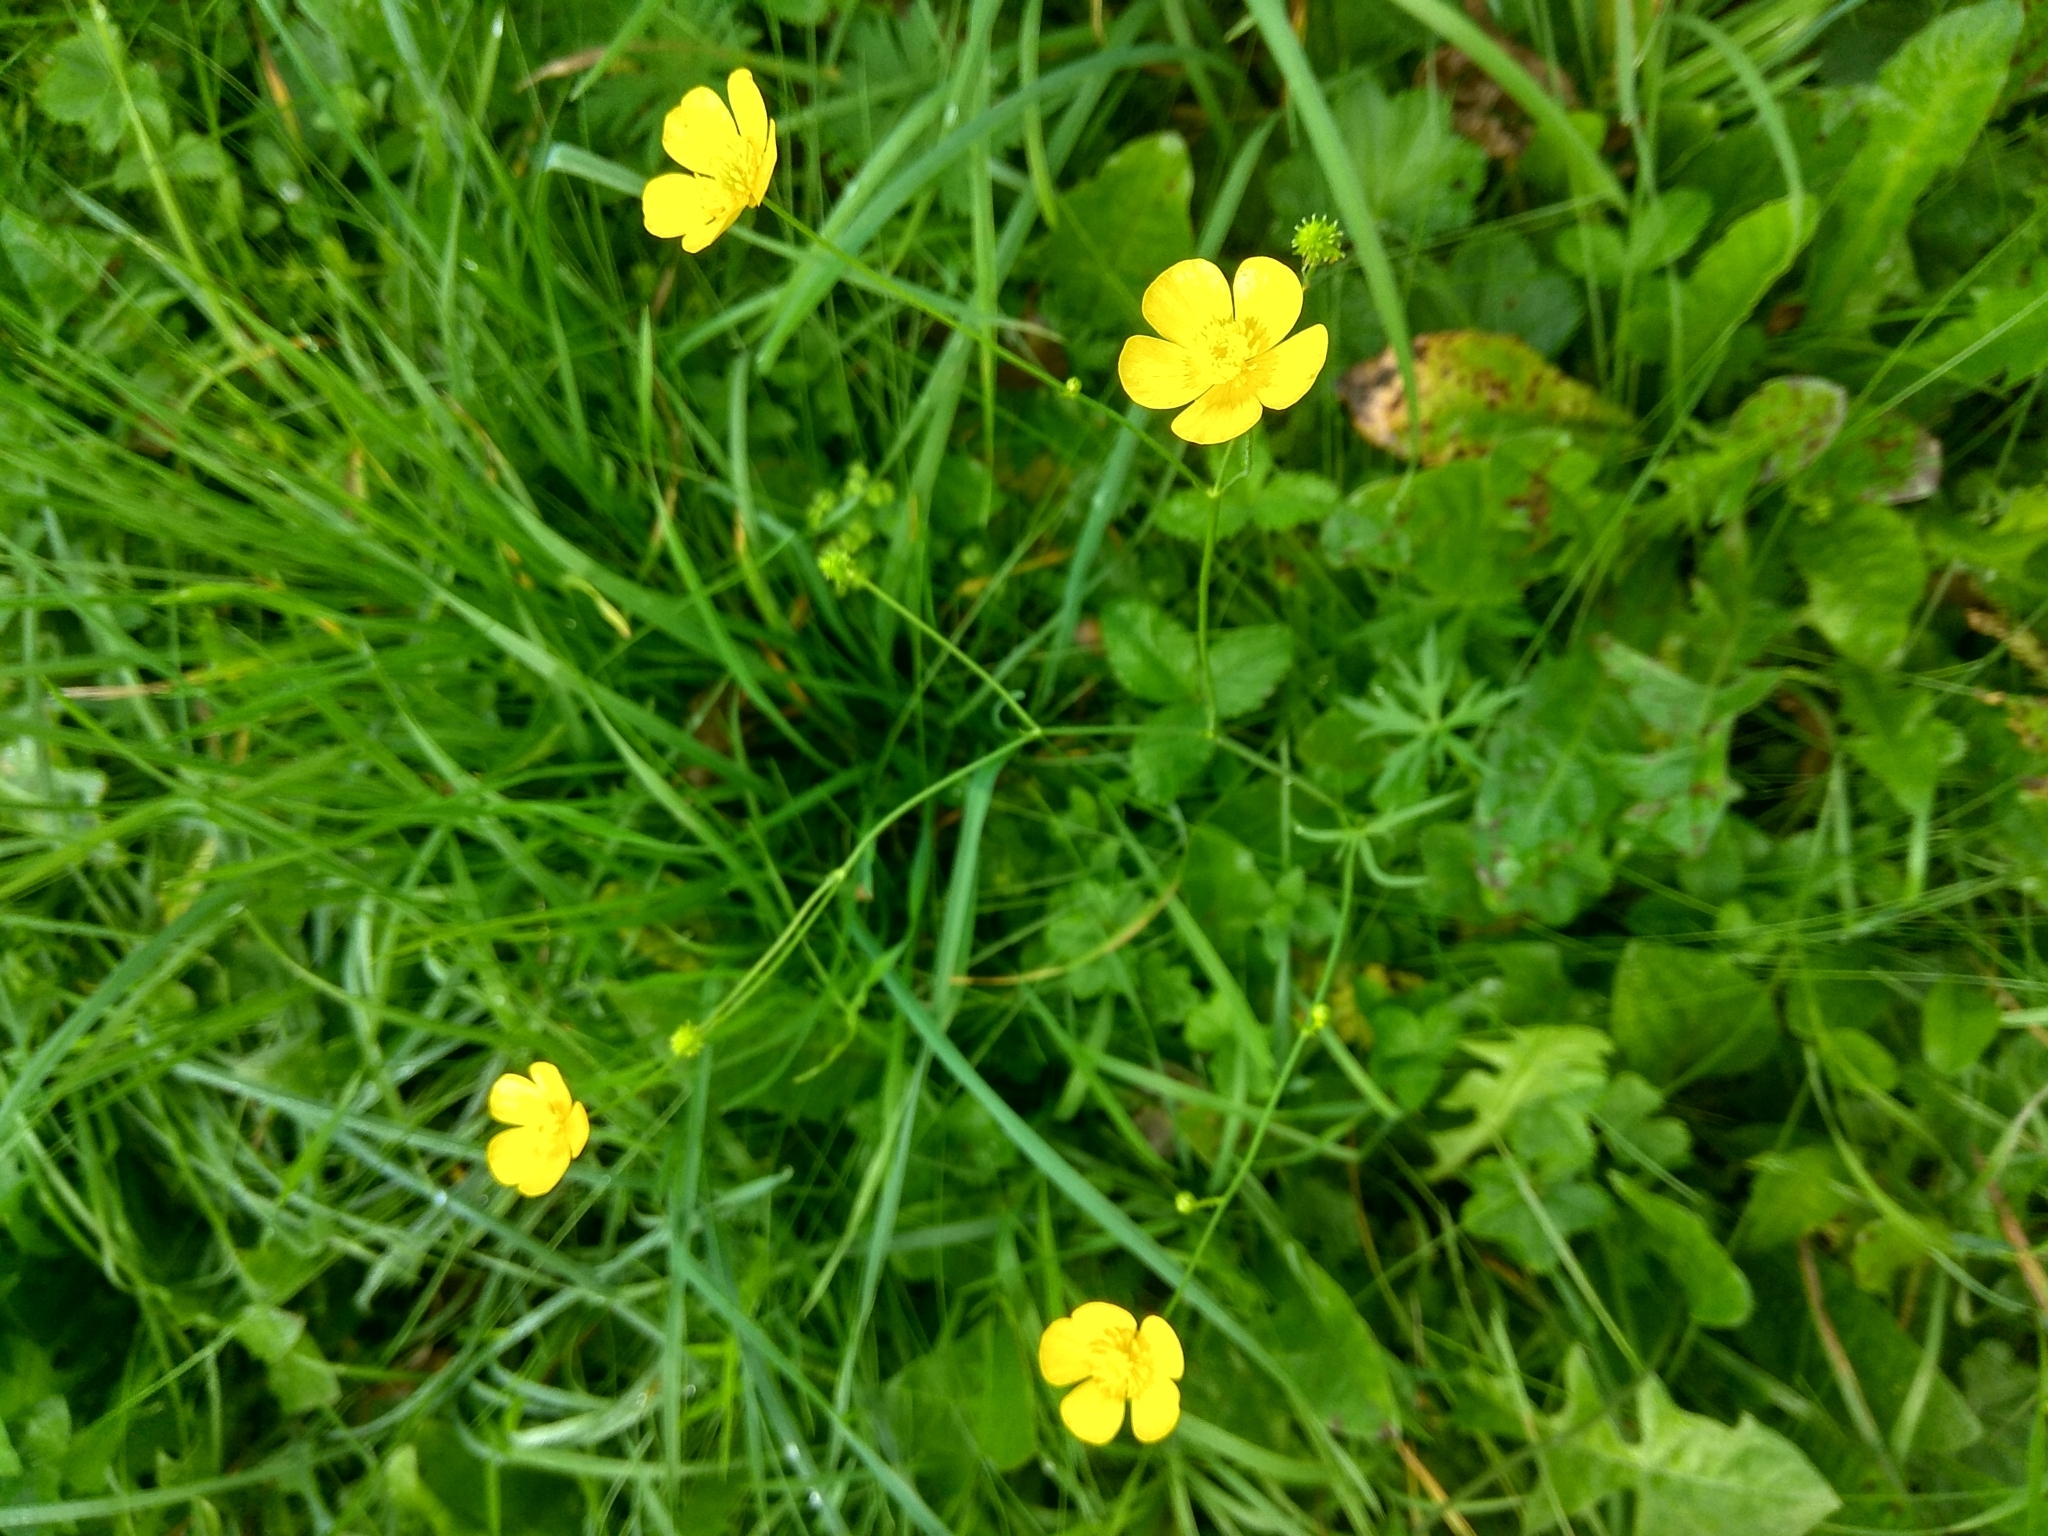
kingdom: Plantae
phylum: Tracheophyta
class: Magnoliopsida
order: Ranunculales
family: Ranunculaceae
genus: Ranunculus
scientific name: Ranunculus acris
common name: Meadow buttercup
